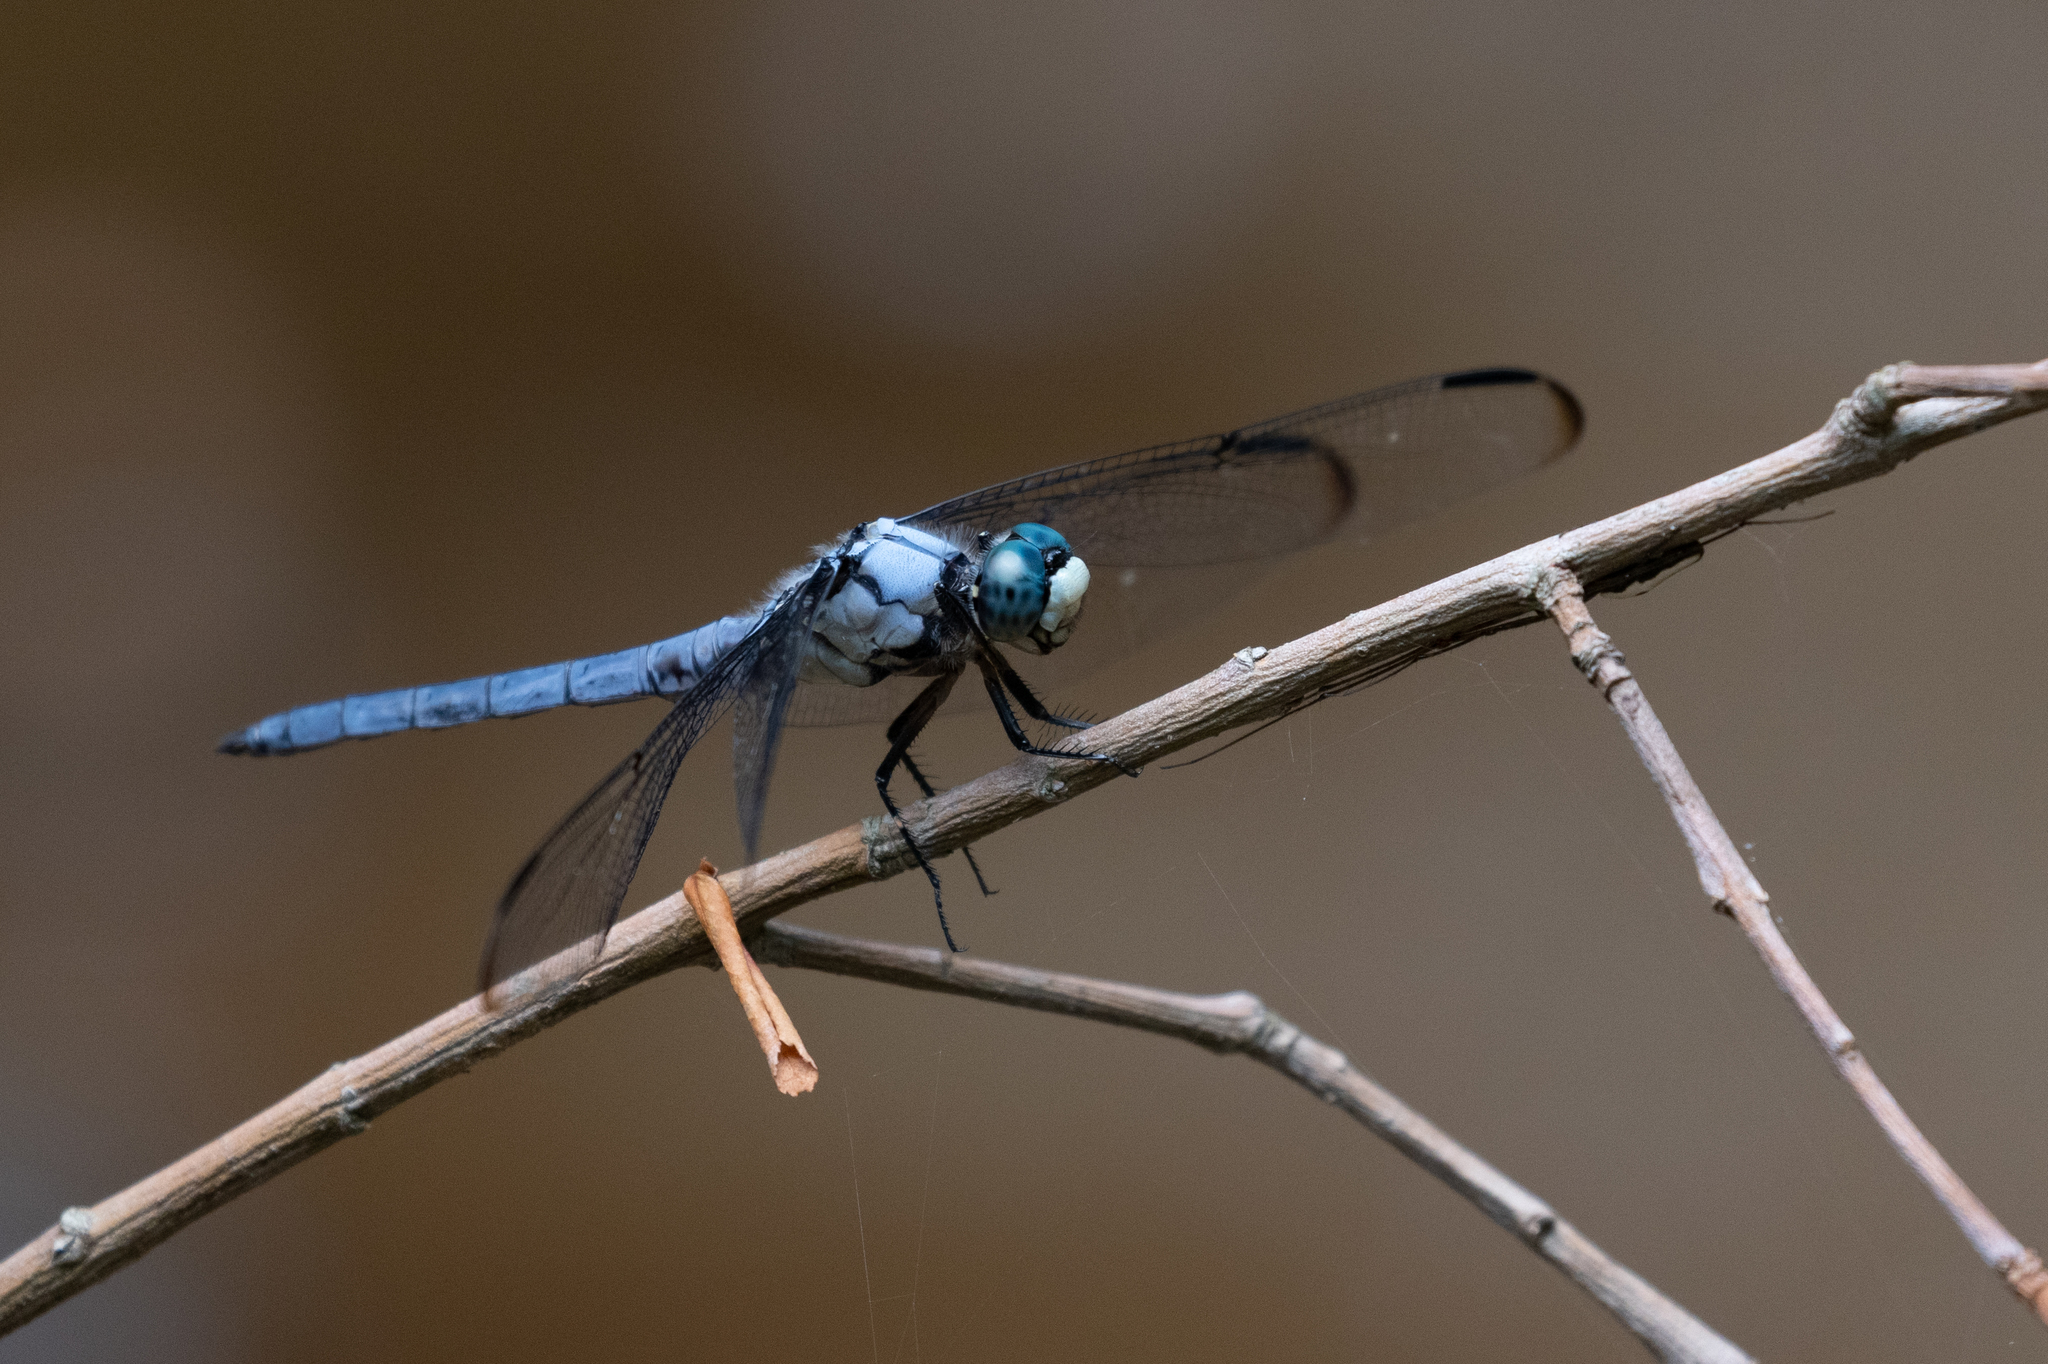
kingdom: Animalia
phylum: Arthropoda
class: Insecta
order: Odonata
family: Libellulidae
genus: Libellula
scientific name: Libellula vibrans
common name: Great blue skimmer
